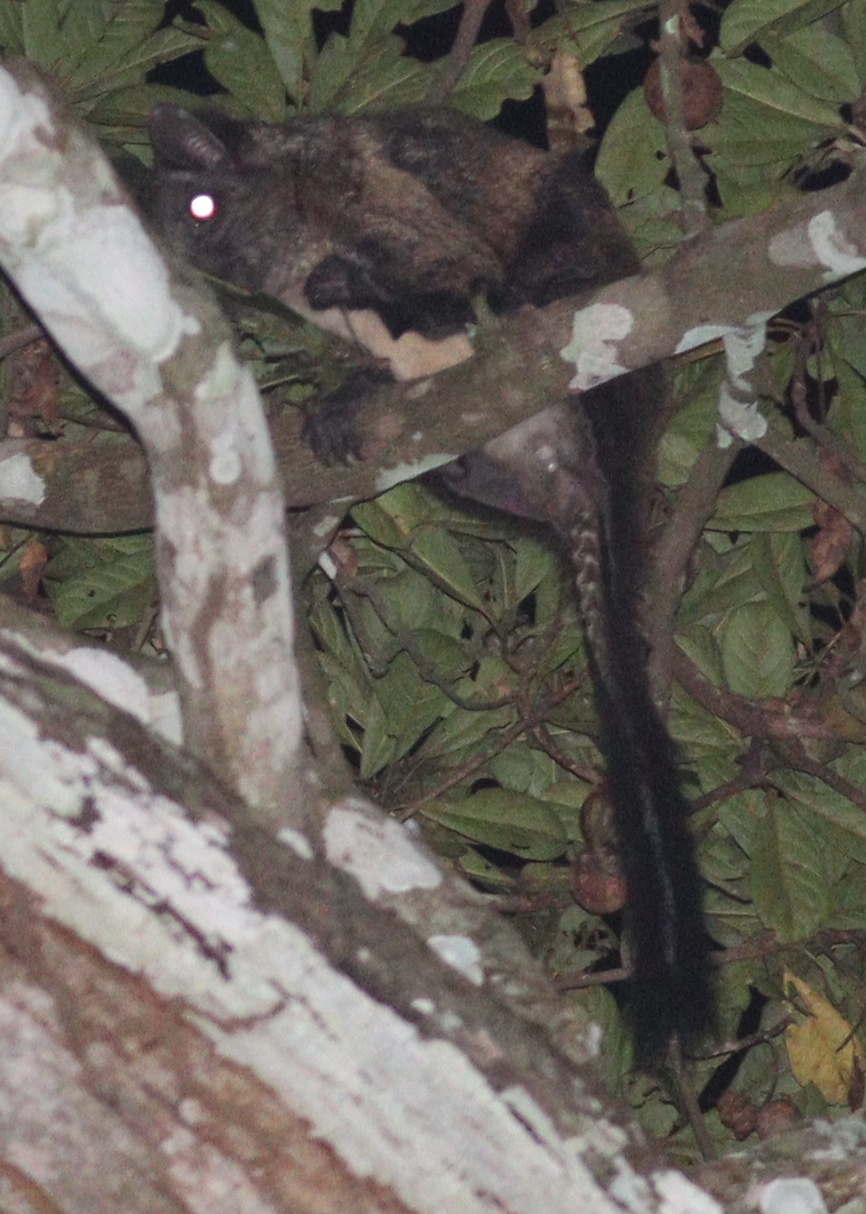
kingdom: Animalia
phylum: Chordata
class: Mammalia
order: Rodentia
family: Anomaluridae
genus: Anomalurus
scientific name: Anomalurus derbianus
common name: Lord derby's flying squirrel
